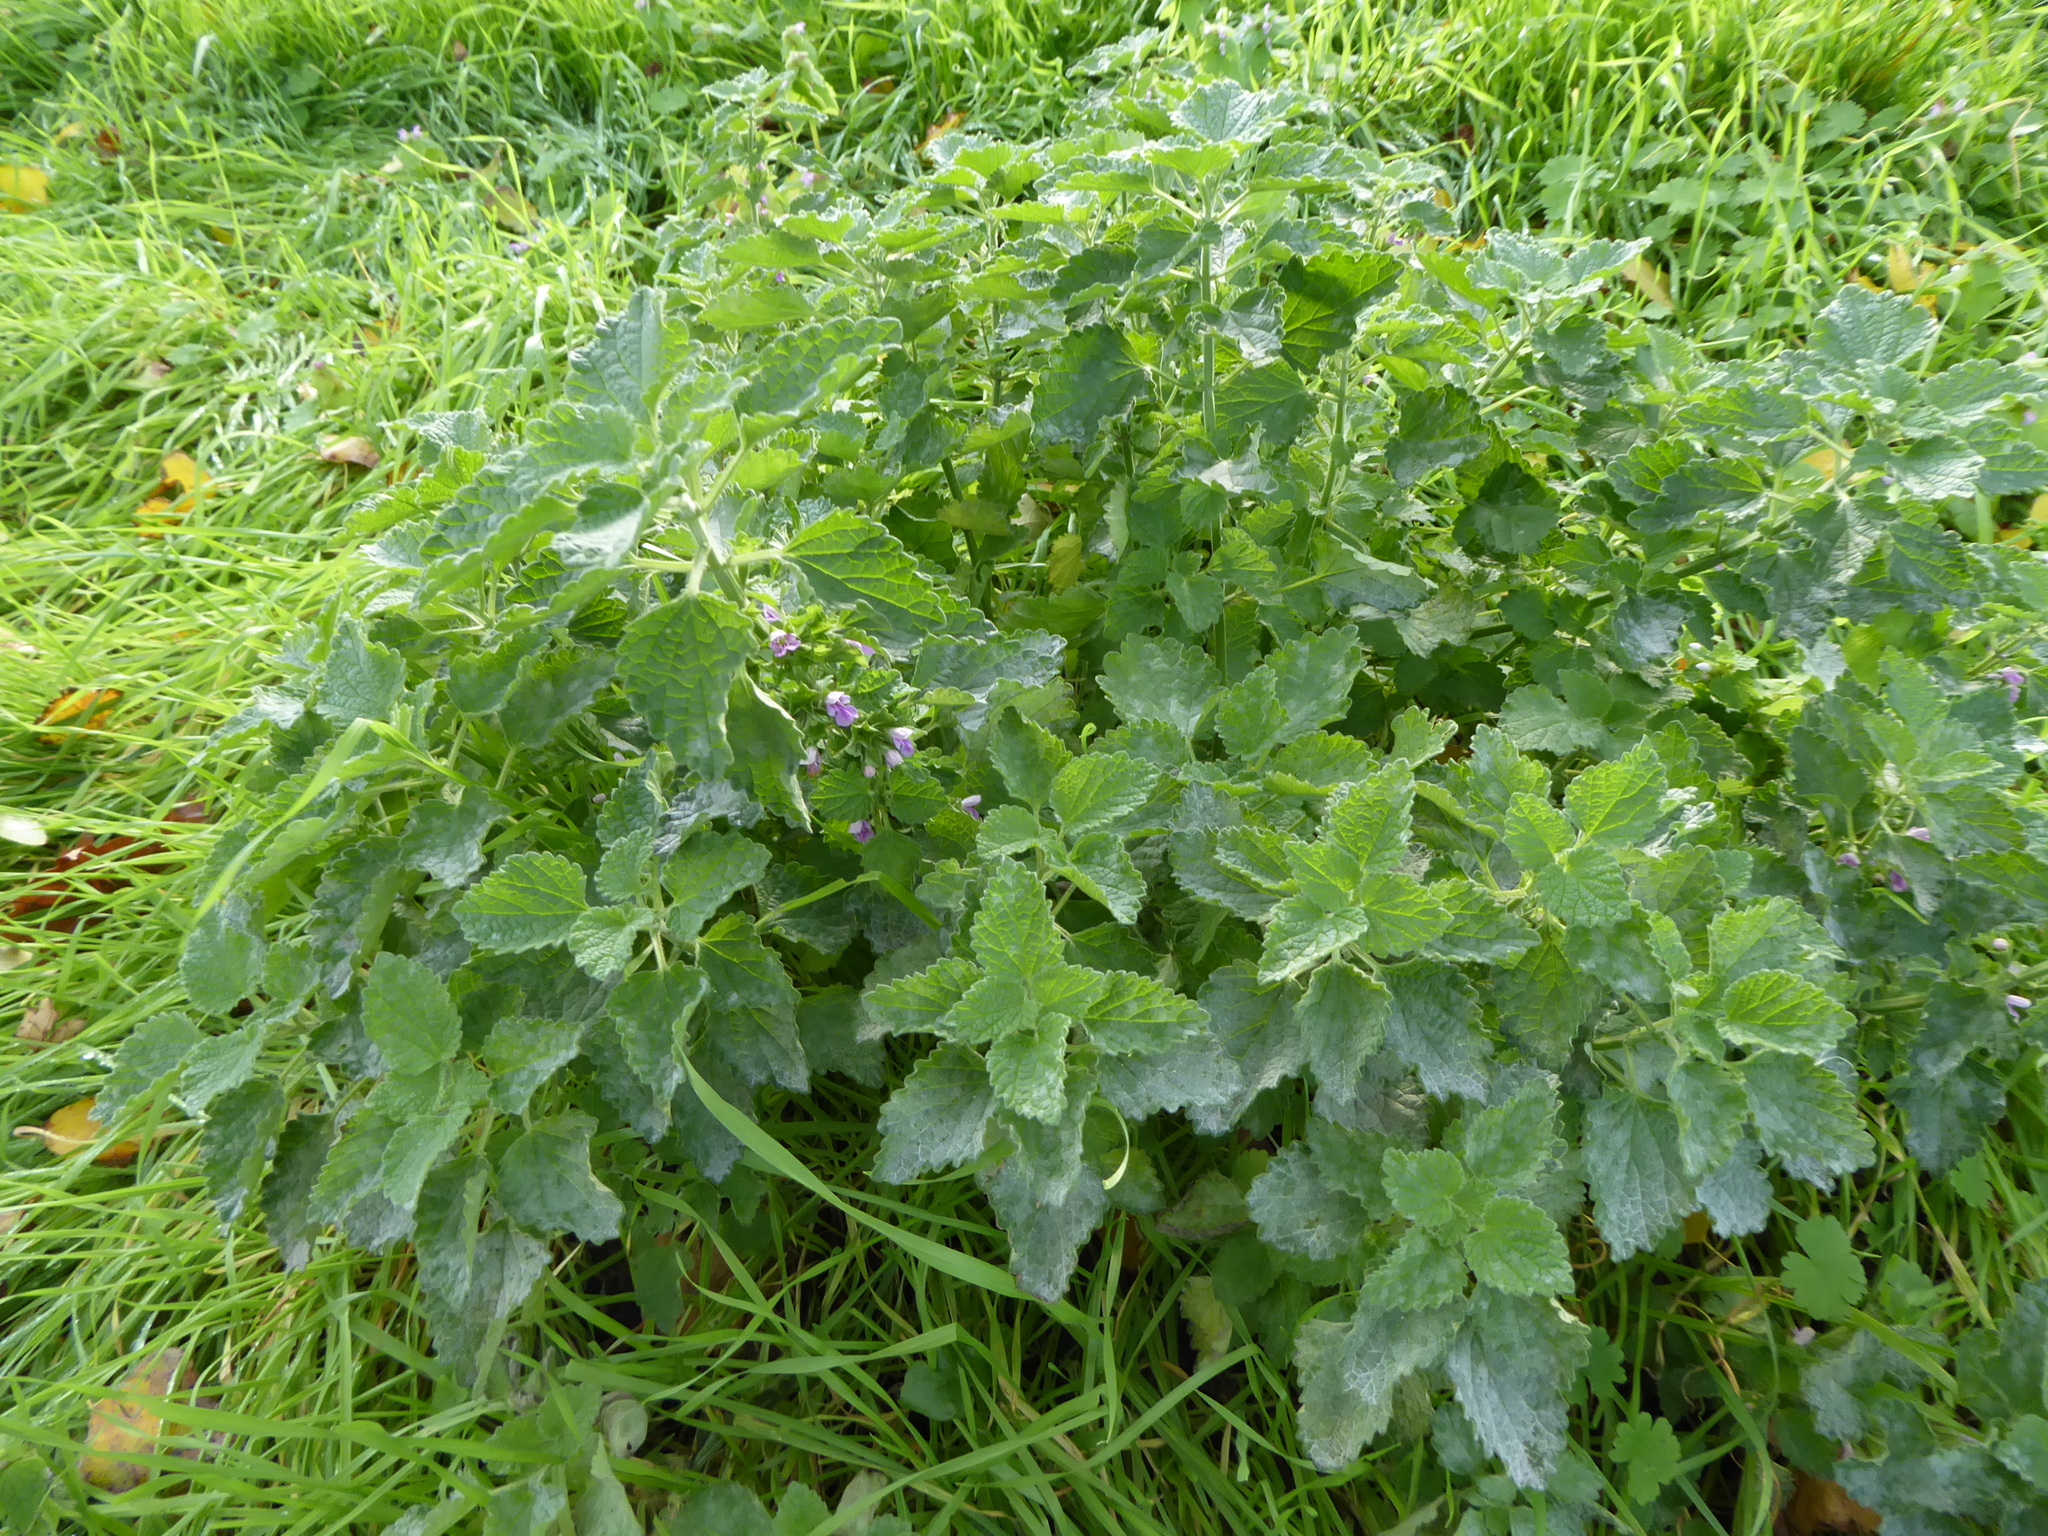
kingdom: Plantae
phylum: Tracheophyta
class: Magnoliopsida
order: Lamiales
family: Lamiaceae
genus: Ballota
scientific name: Ballota nigra
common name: Black horehound
